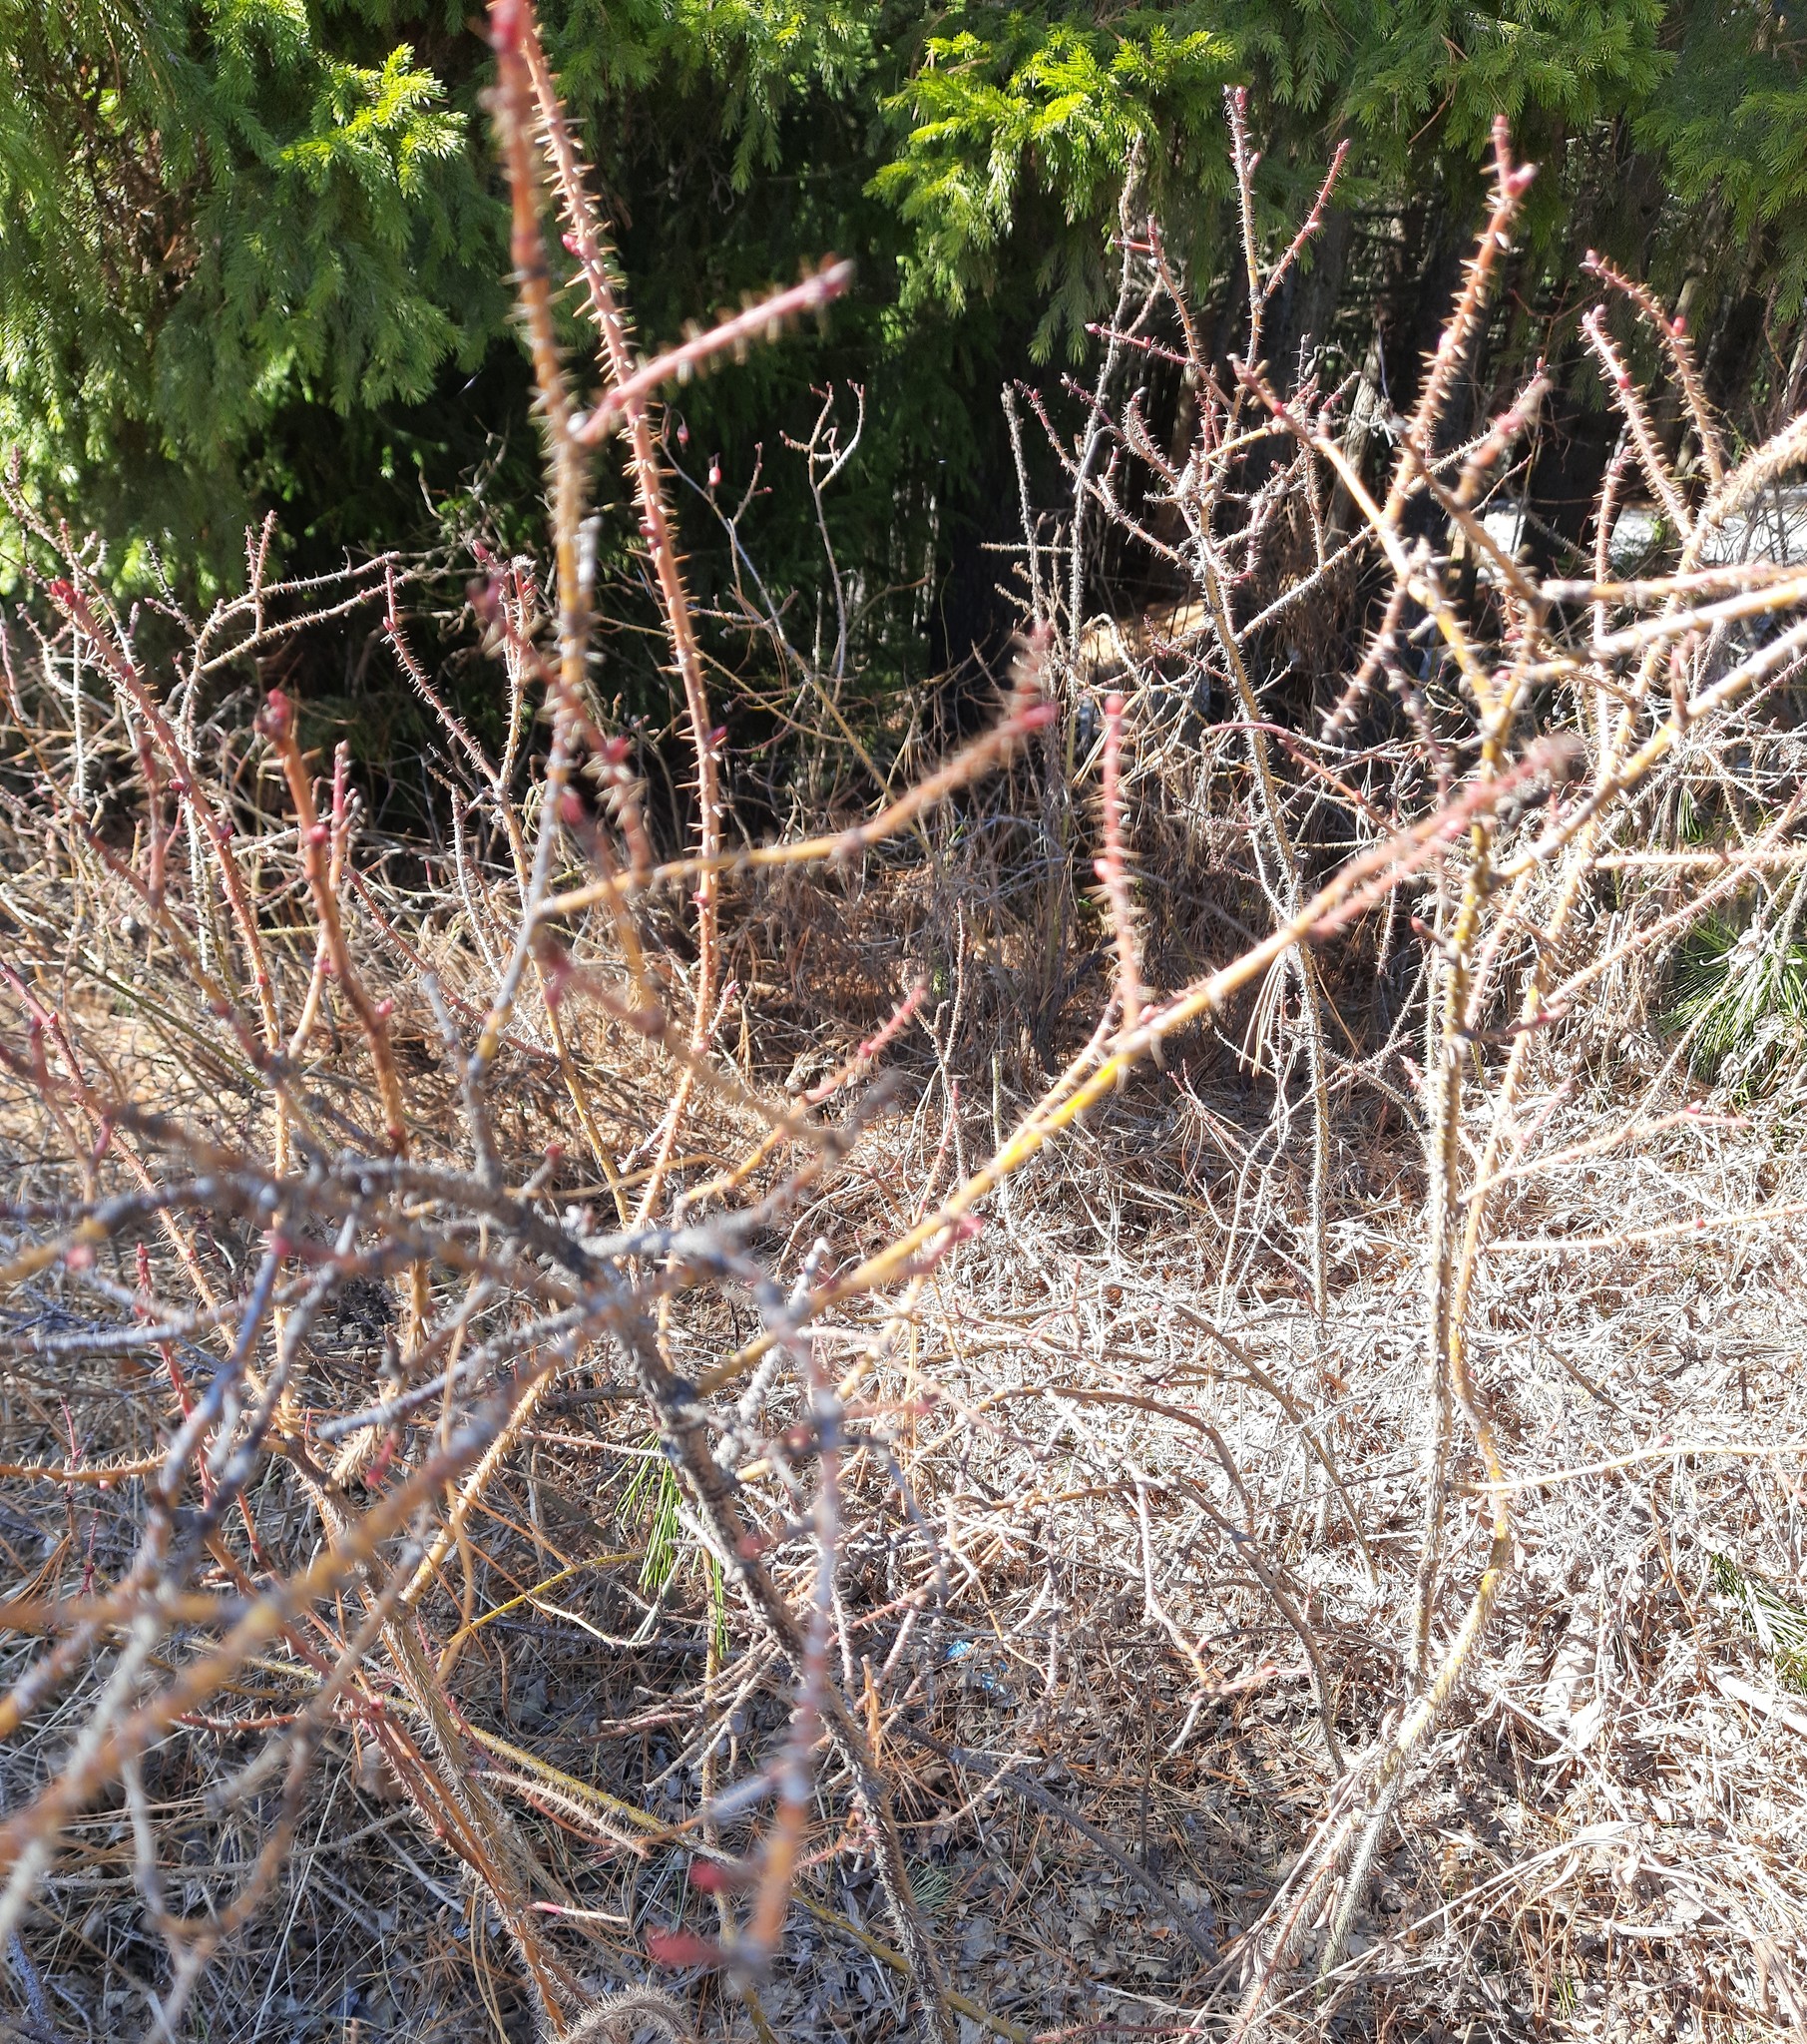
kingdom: Plantae
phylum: Tracheophyta
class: Magnoliopsida
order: Rosales
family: Rosaceae
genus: Rosa
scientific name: Rosa acicularis
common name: Prickly rose
